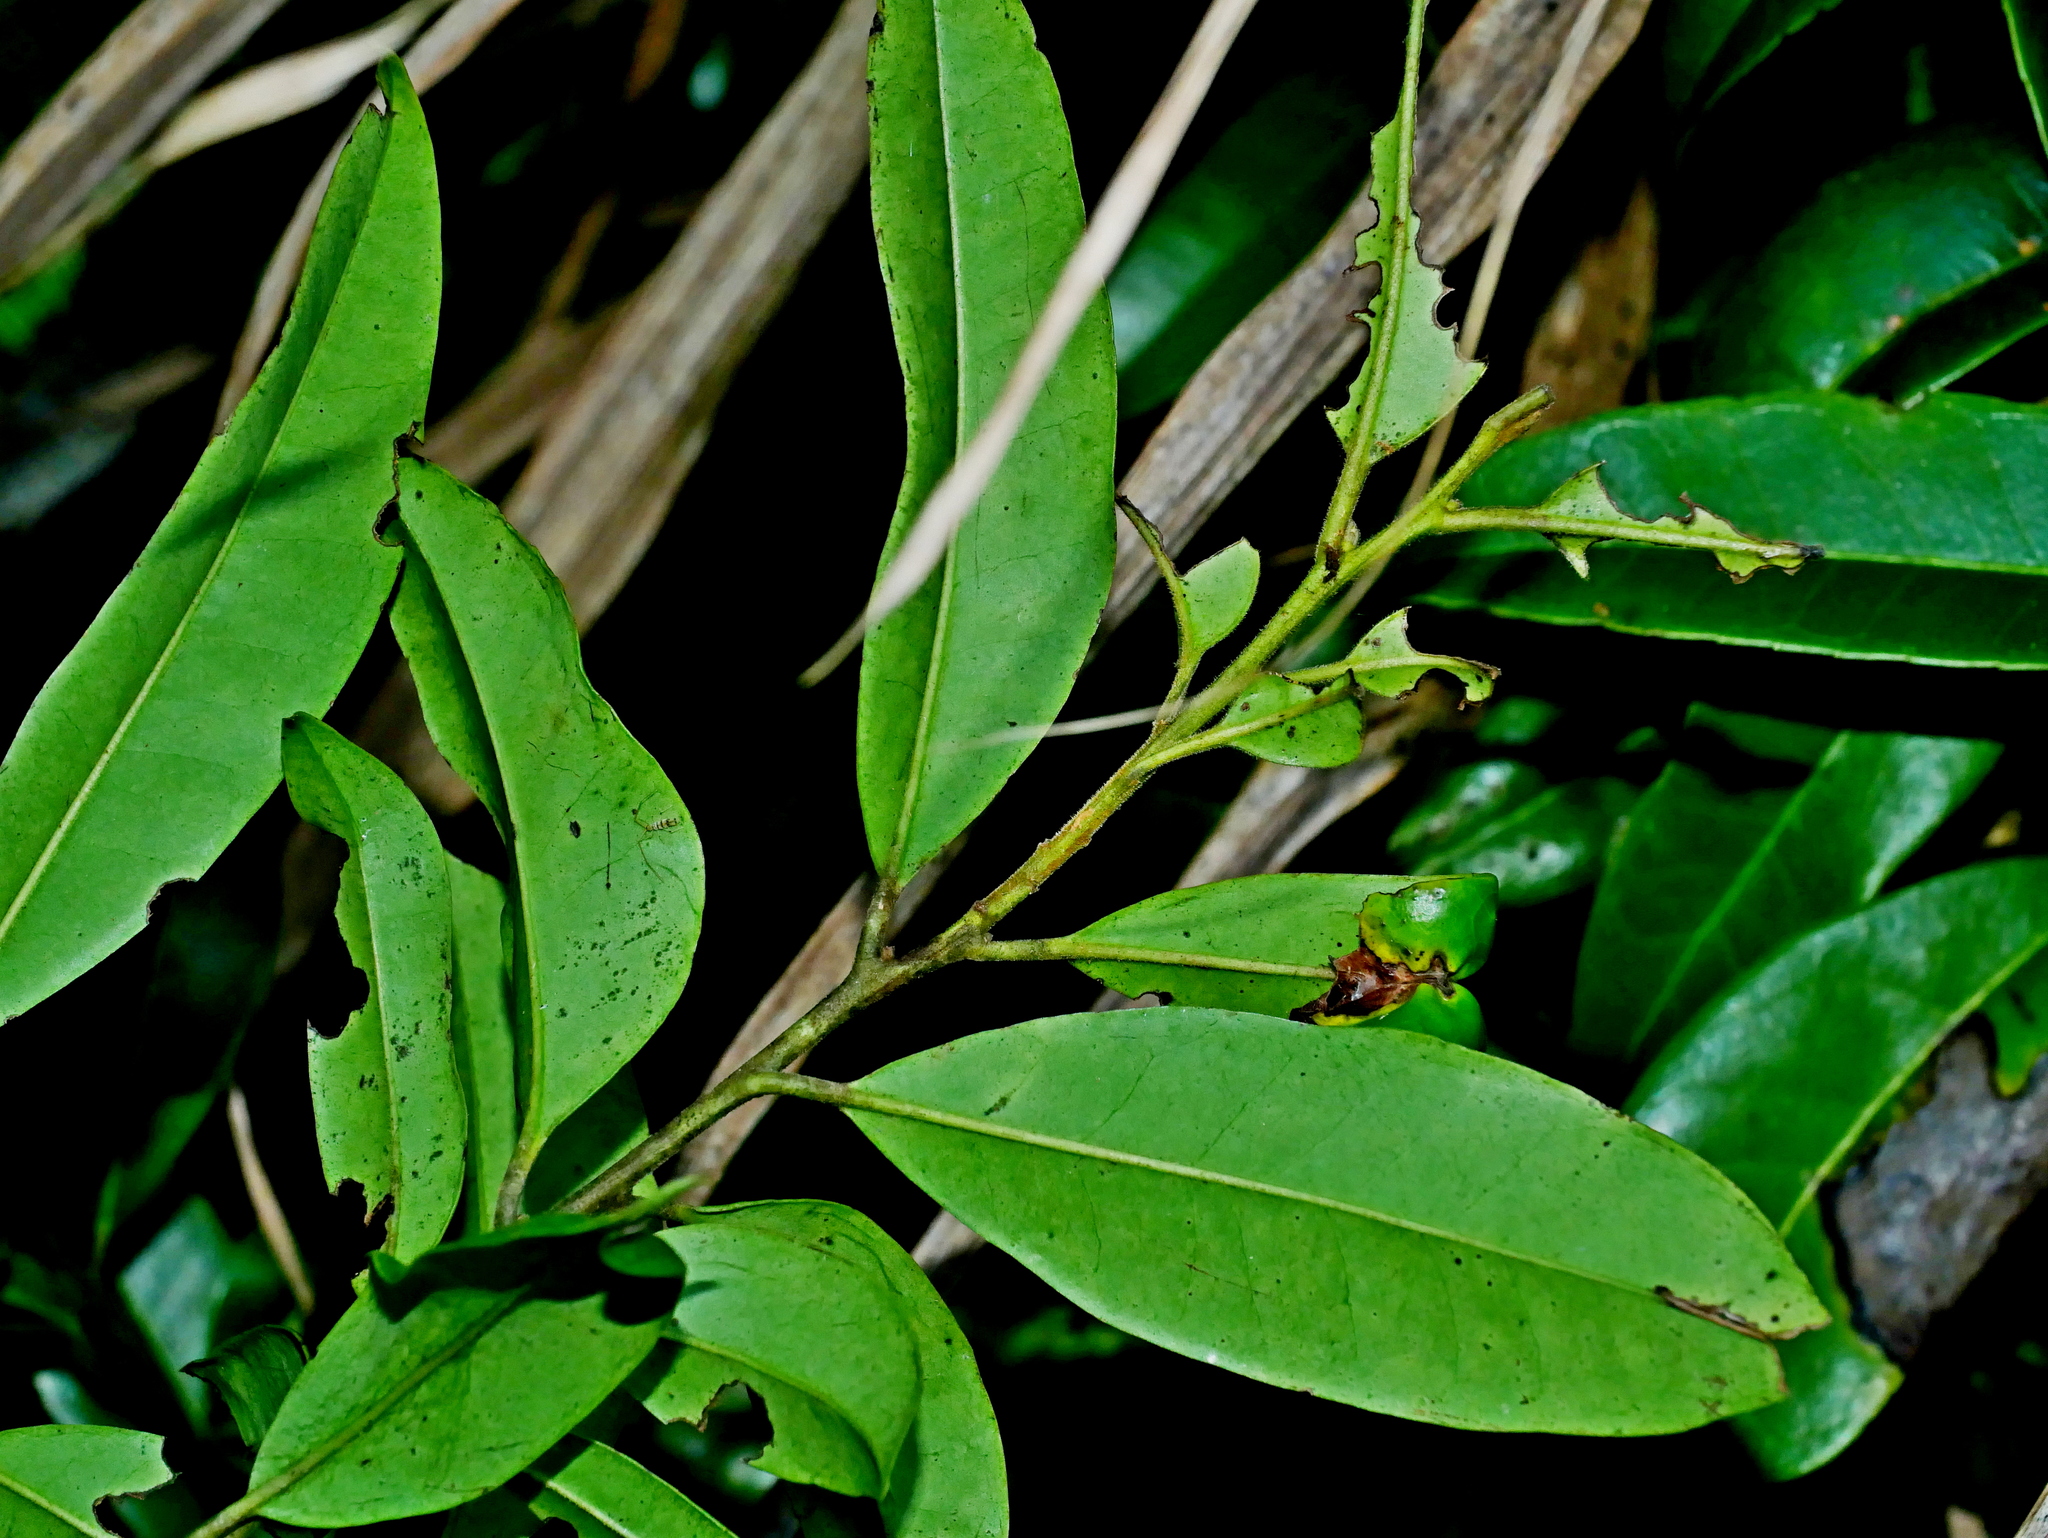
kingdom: Plantae
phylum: Tracheophyta
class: Magnoliopsida
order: Aquifoliales
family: Aquifoliaceae
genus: Ilex
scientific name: Ilex pedunculosa
